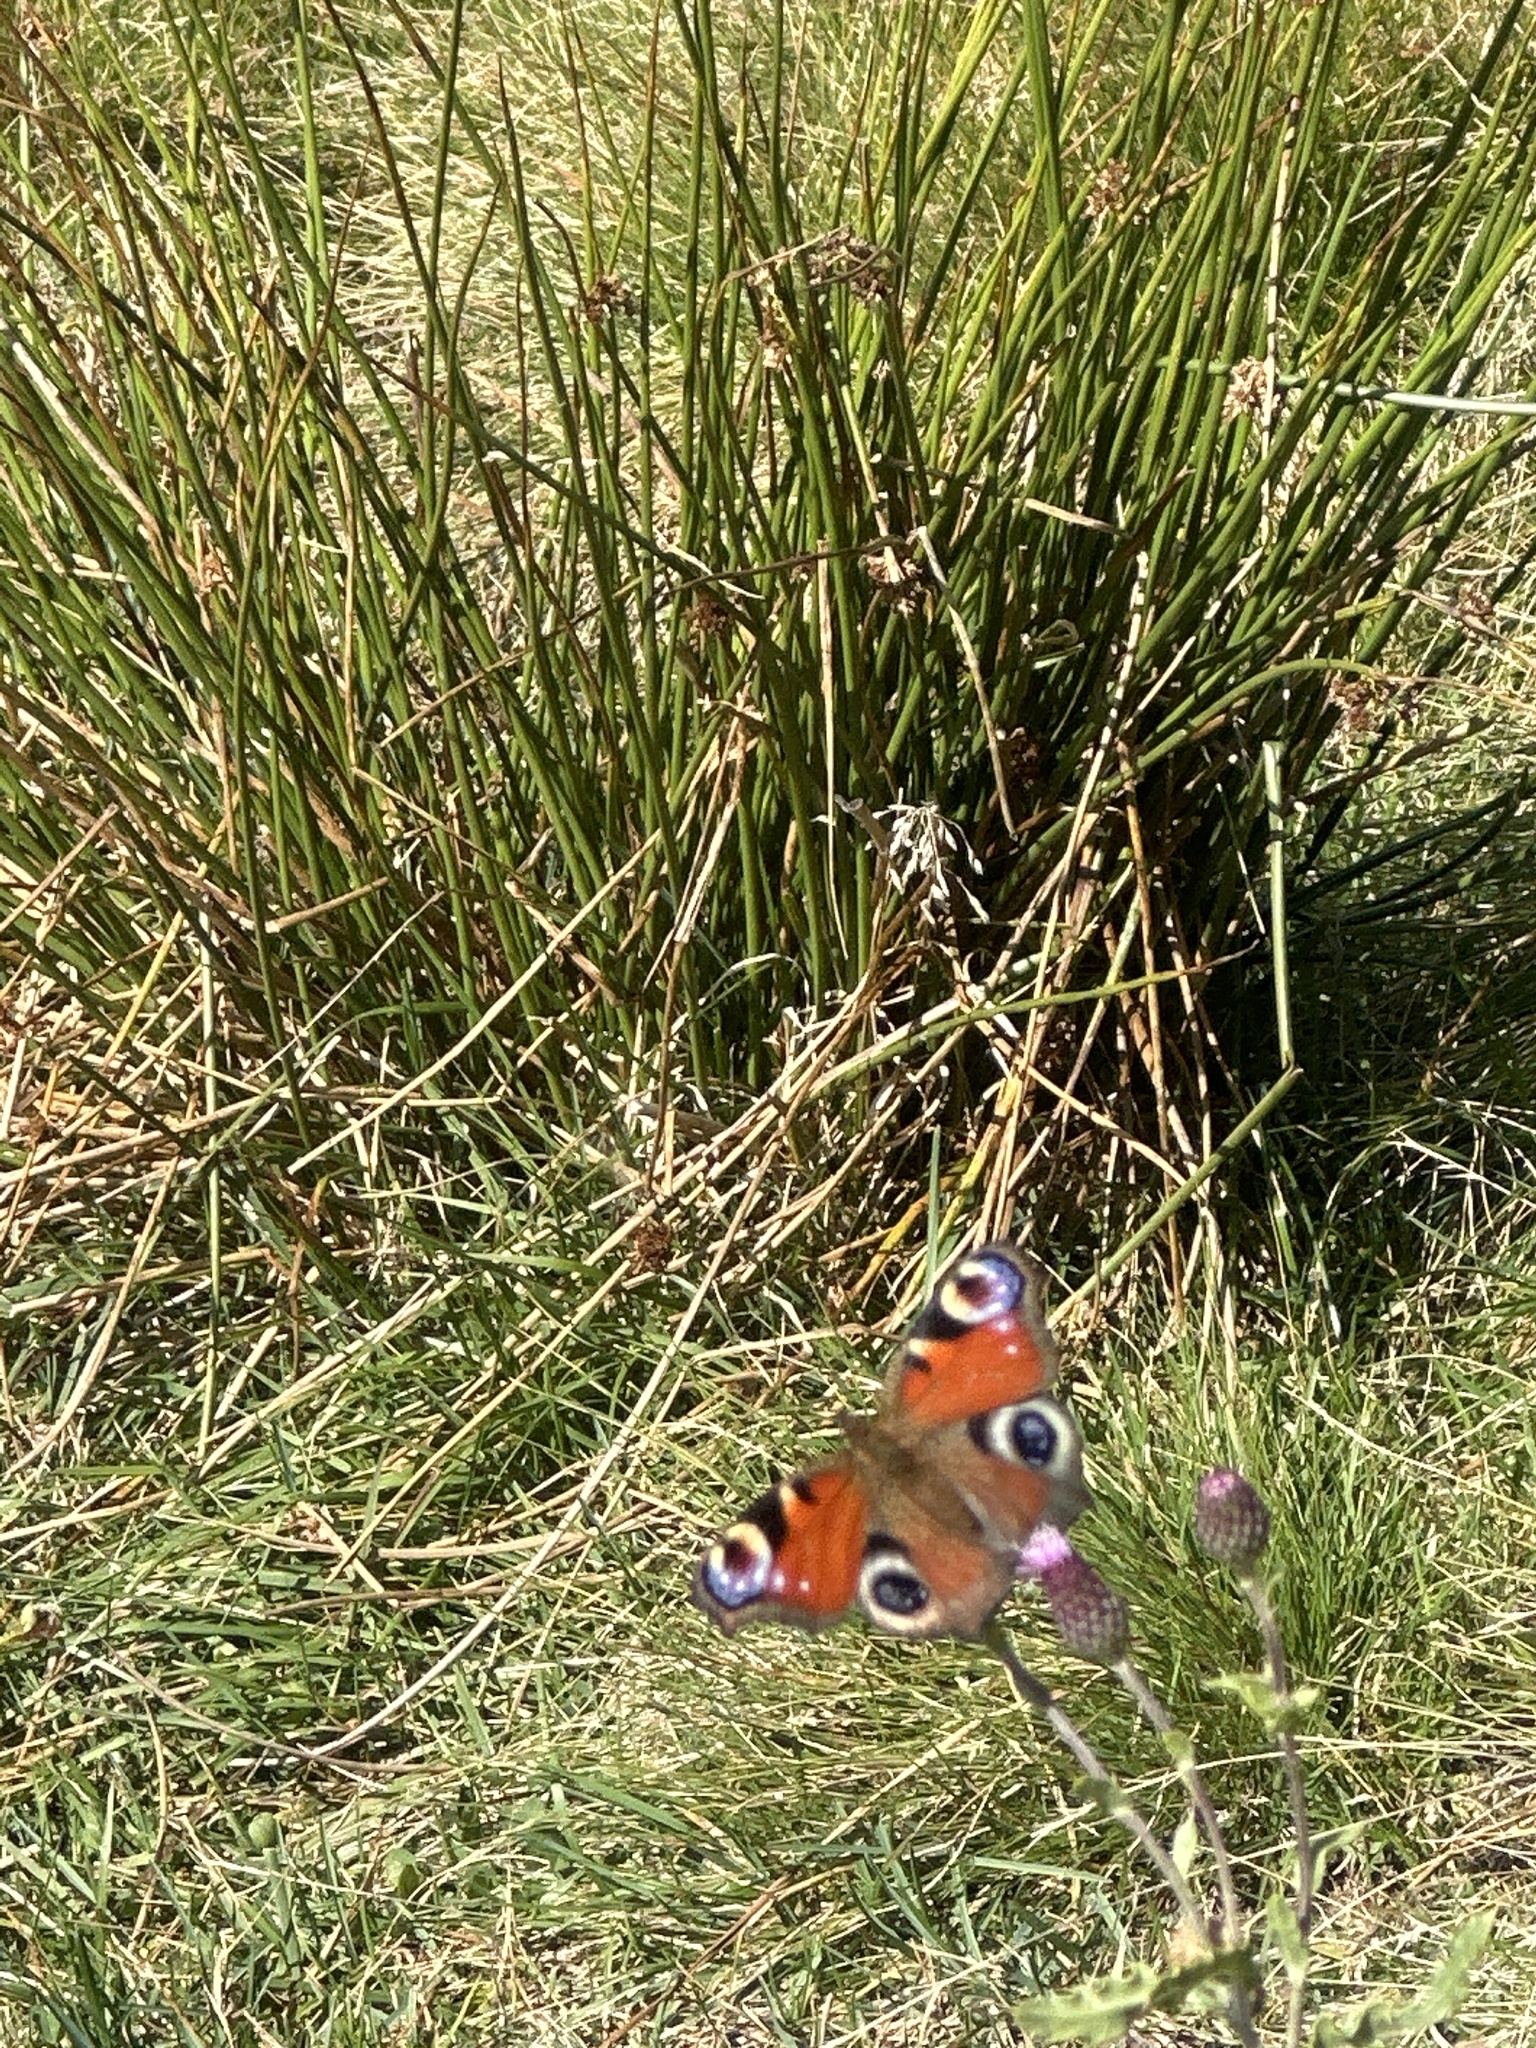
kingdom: Animalia
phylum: Arthropoda
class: Insecta
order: Lepidoptera
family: Nymphalidae
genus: Aglais
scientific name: Aglais io
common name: Peacock
